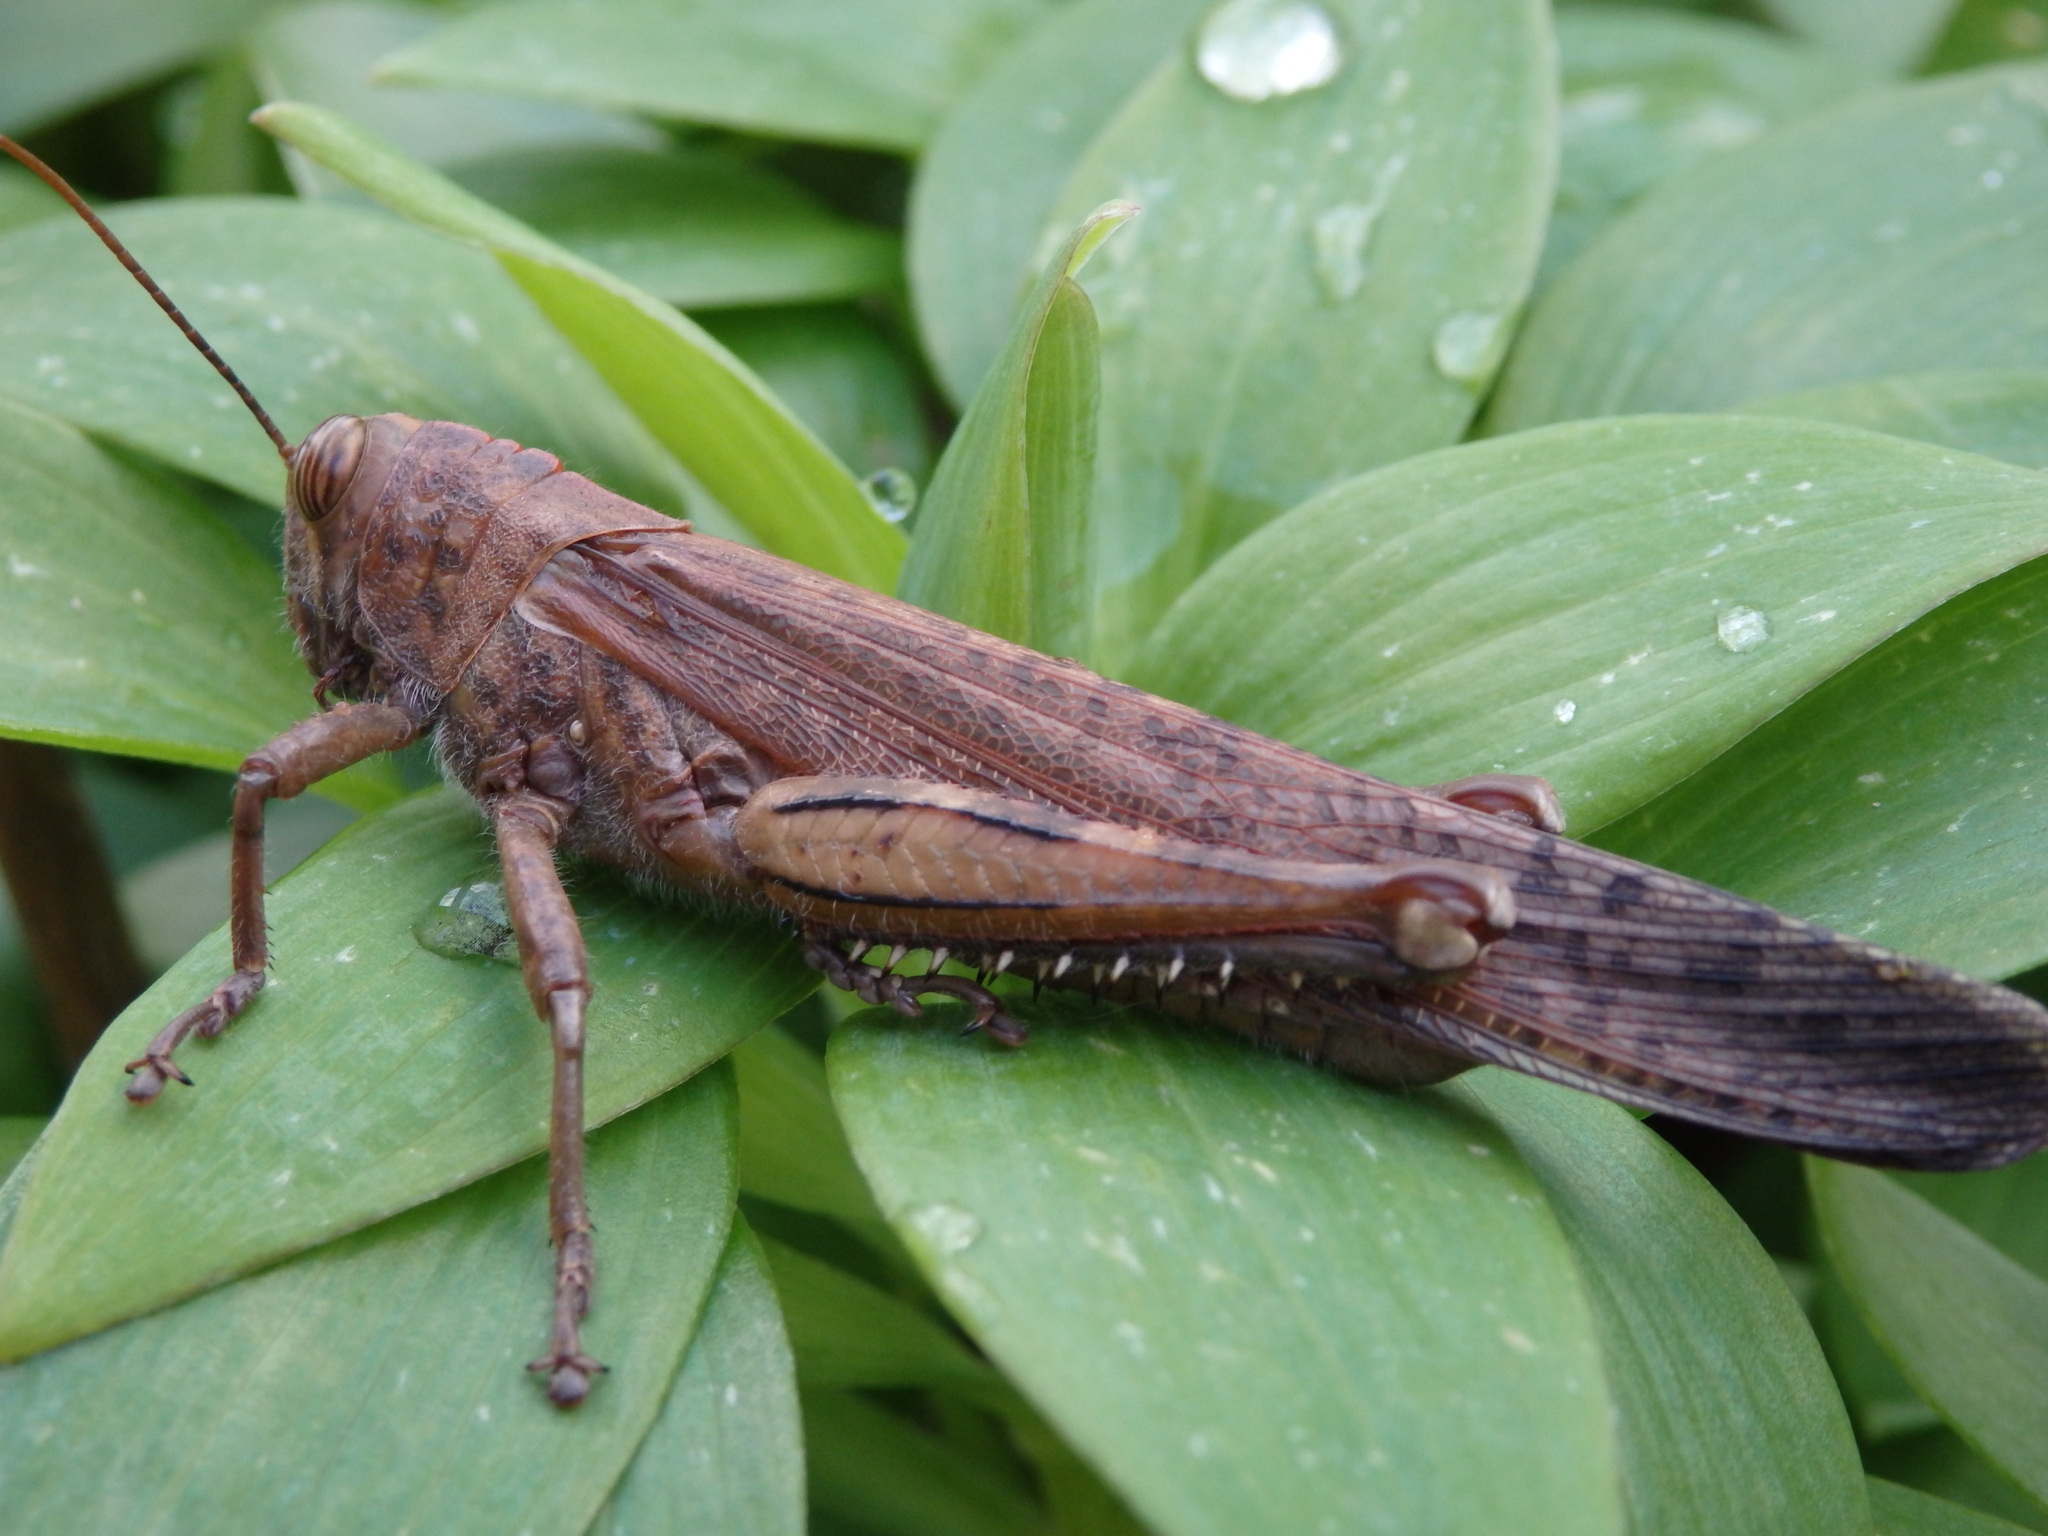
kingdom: Animalia
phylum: Arthropoda
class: Insecta
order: Orthoptera
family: Acrididae
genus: Anacridium
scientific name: Anacridium aegyptium
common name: Egyptian grasshopper
